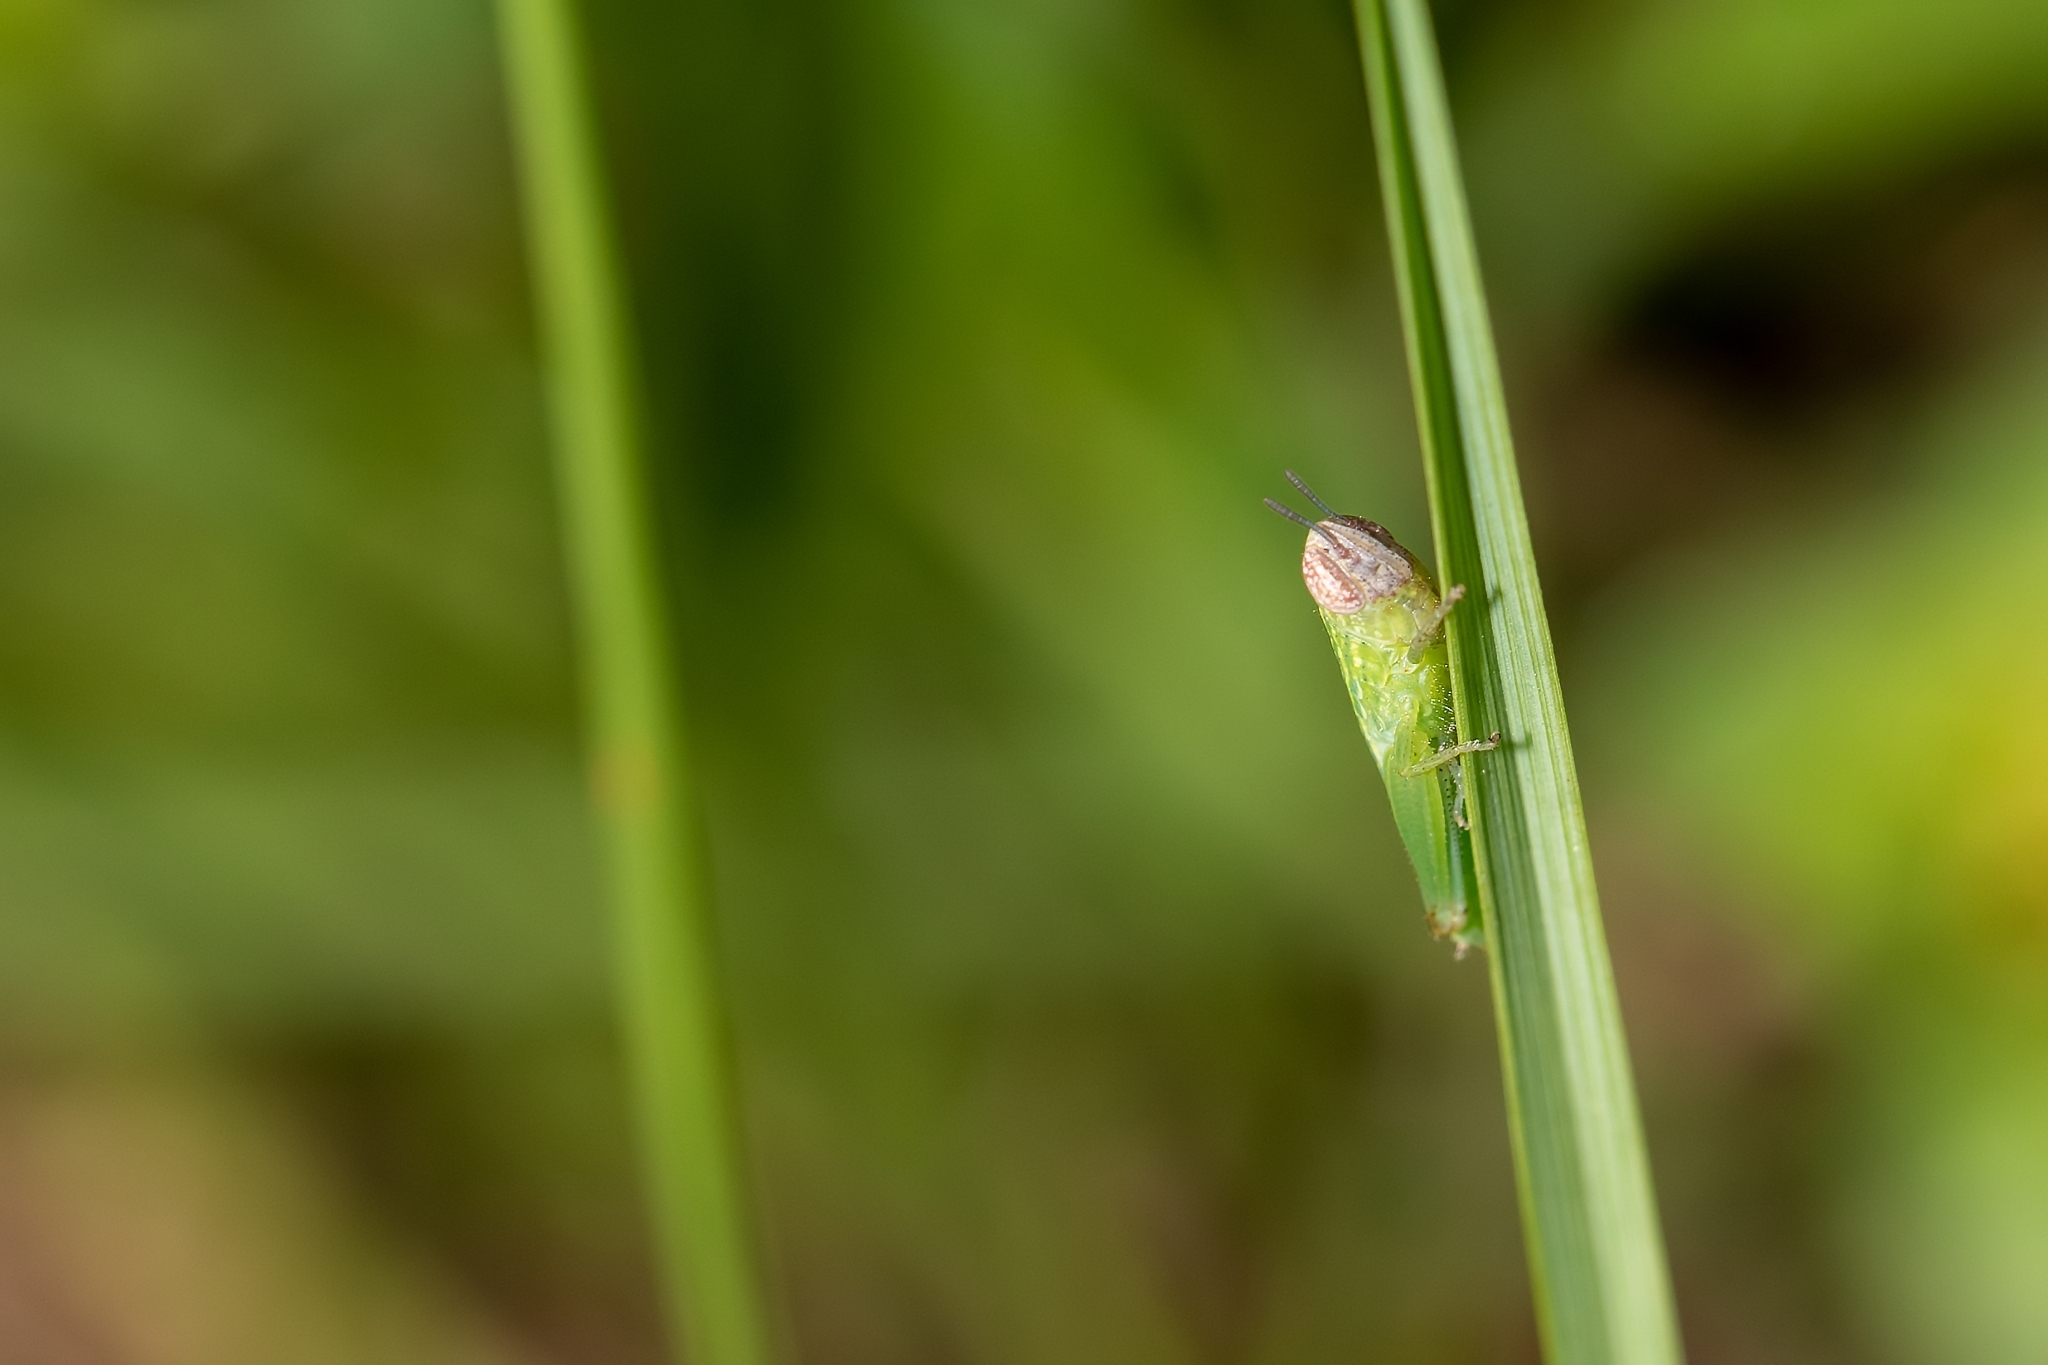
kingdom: Animalia
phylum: Arthropoda
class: Insecta
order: Orthoptera
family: Acrididae
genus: Amblytropidia
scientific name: Amblytropidia mysteca
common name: Brown winter grasshopper
